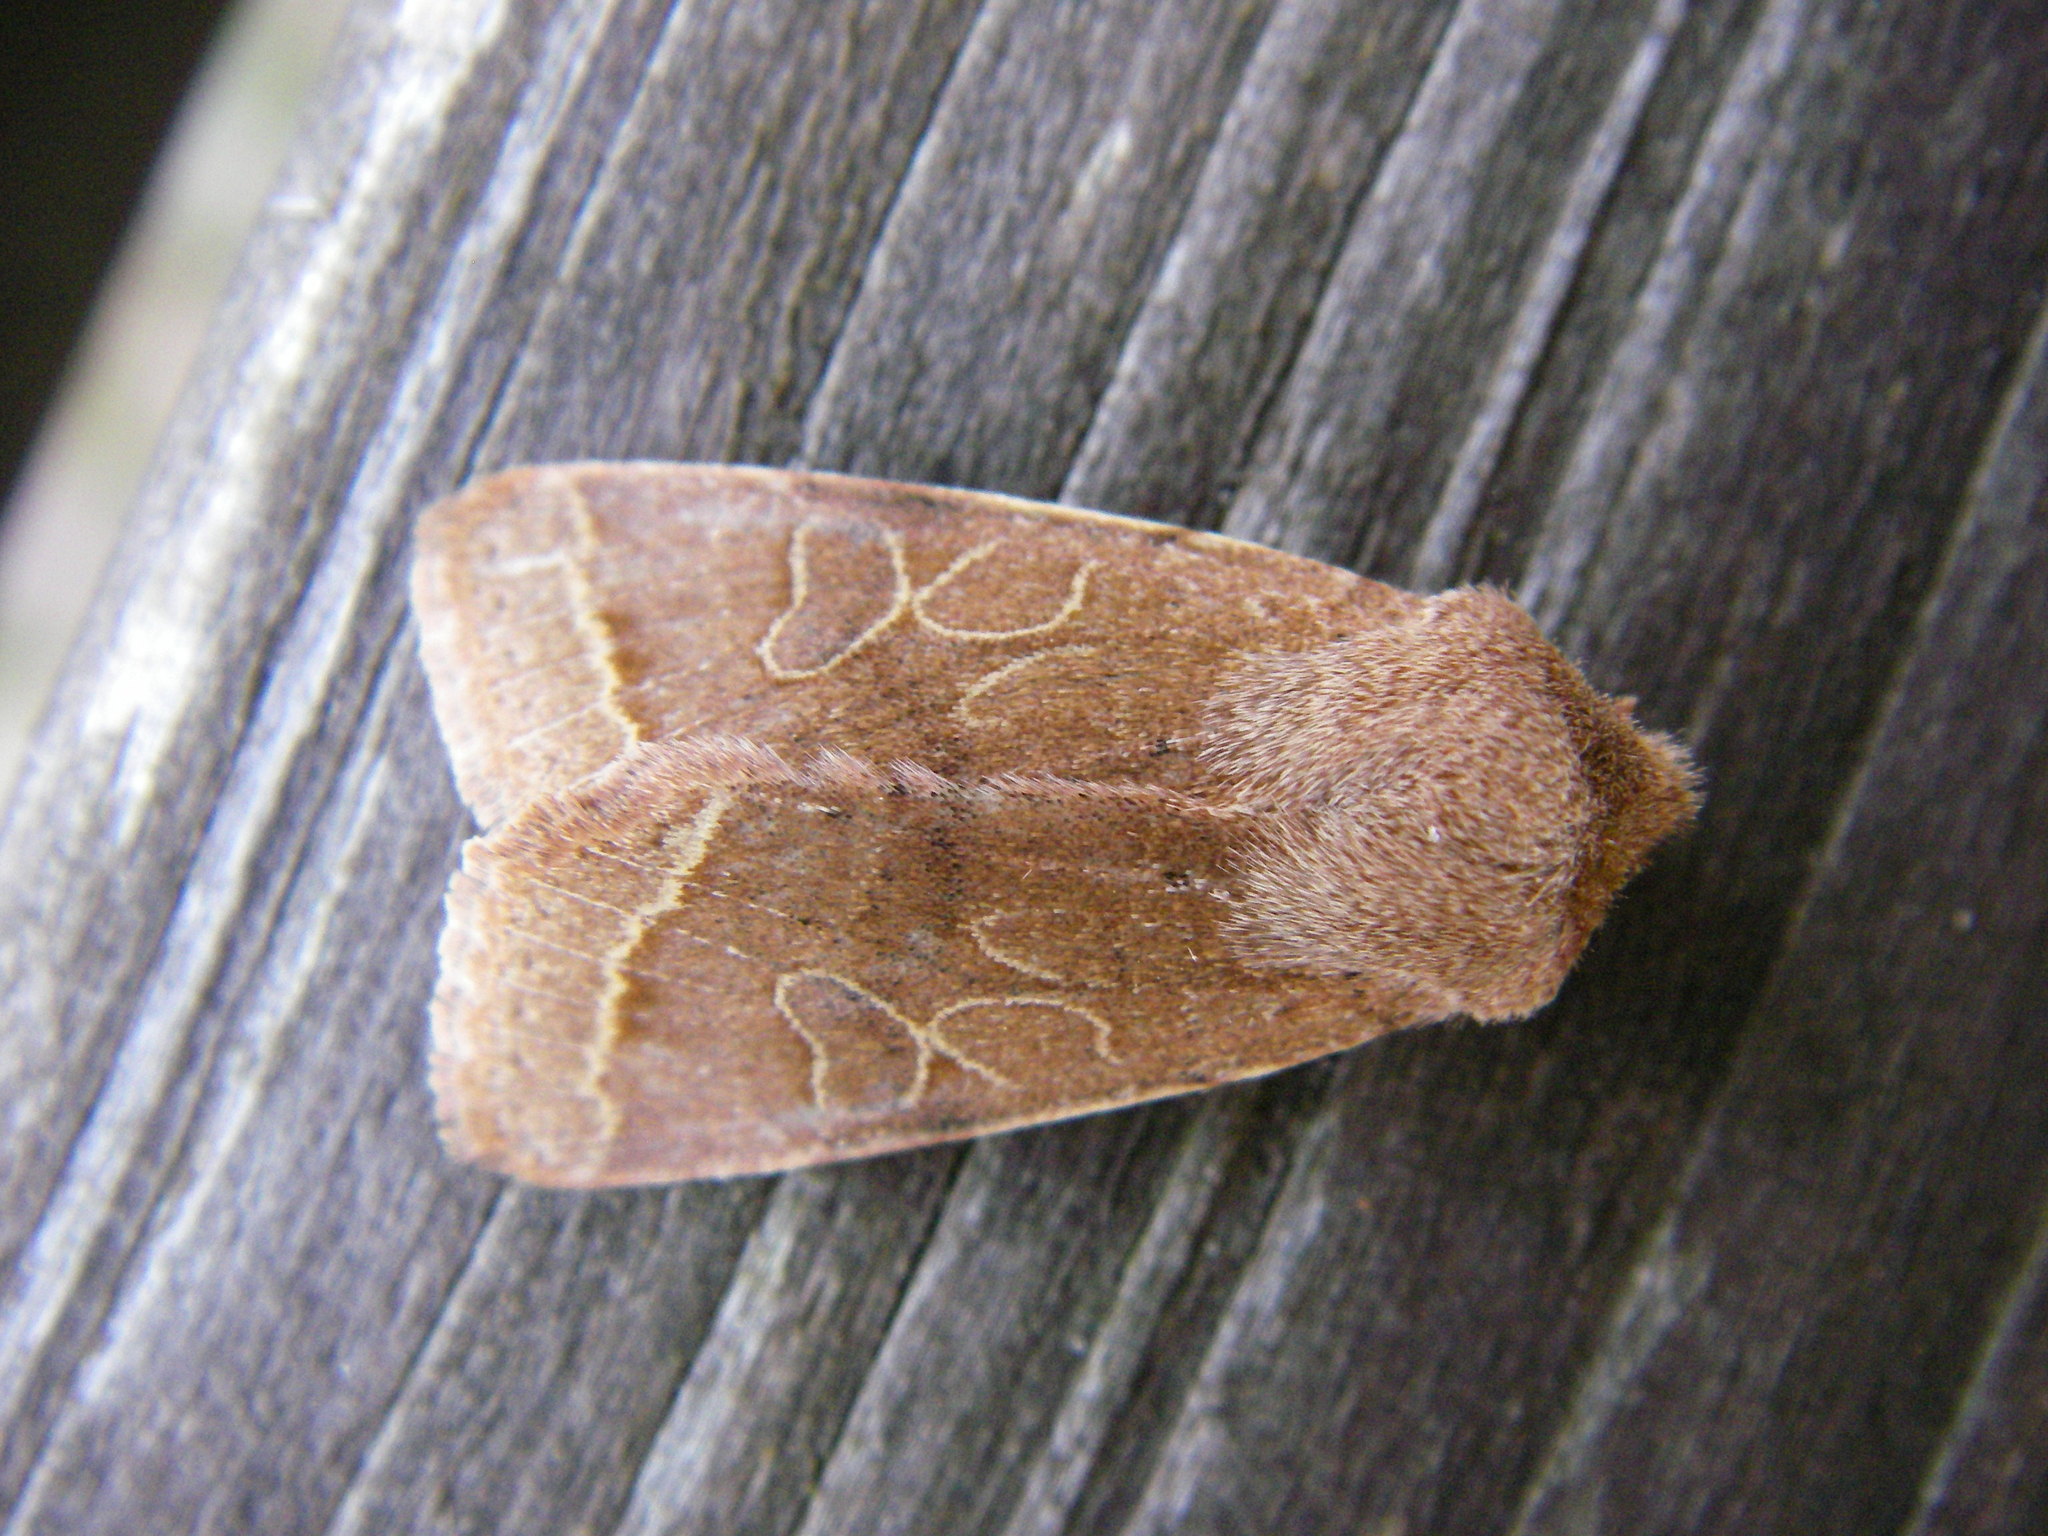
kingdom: Animalia
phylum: Arthropoda
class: Insecta
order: Lepidoptera
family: Noctuidae
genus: Orthosia
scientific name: Orthosia cerasi
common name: Common quaker
